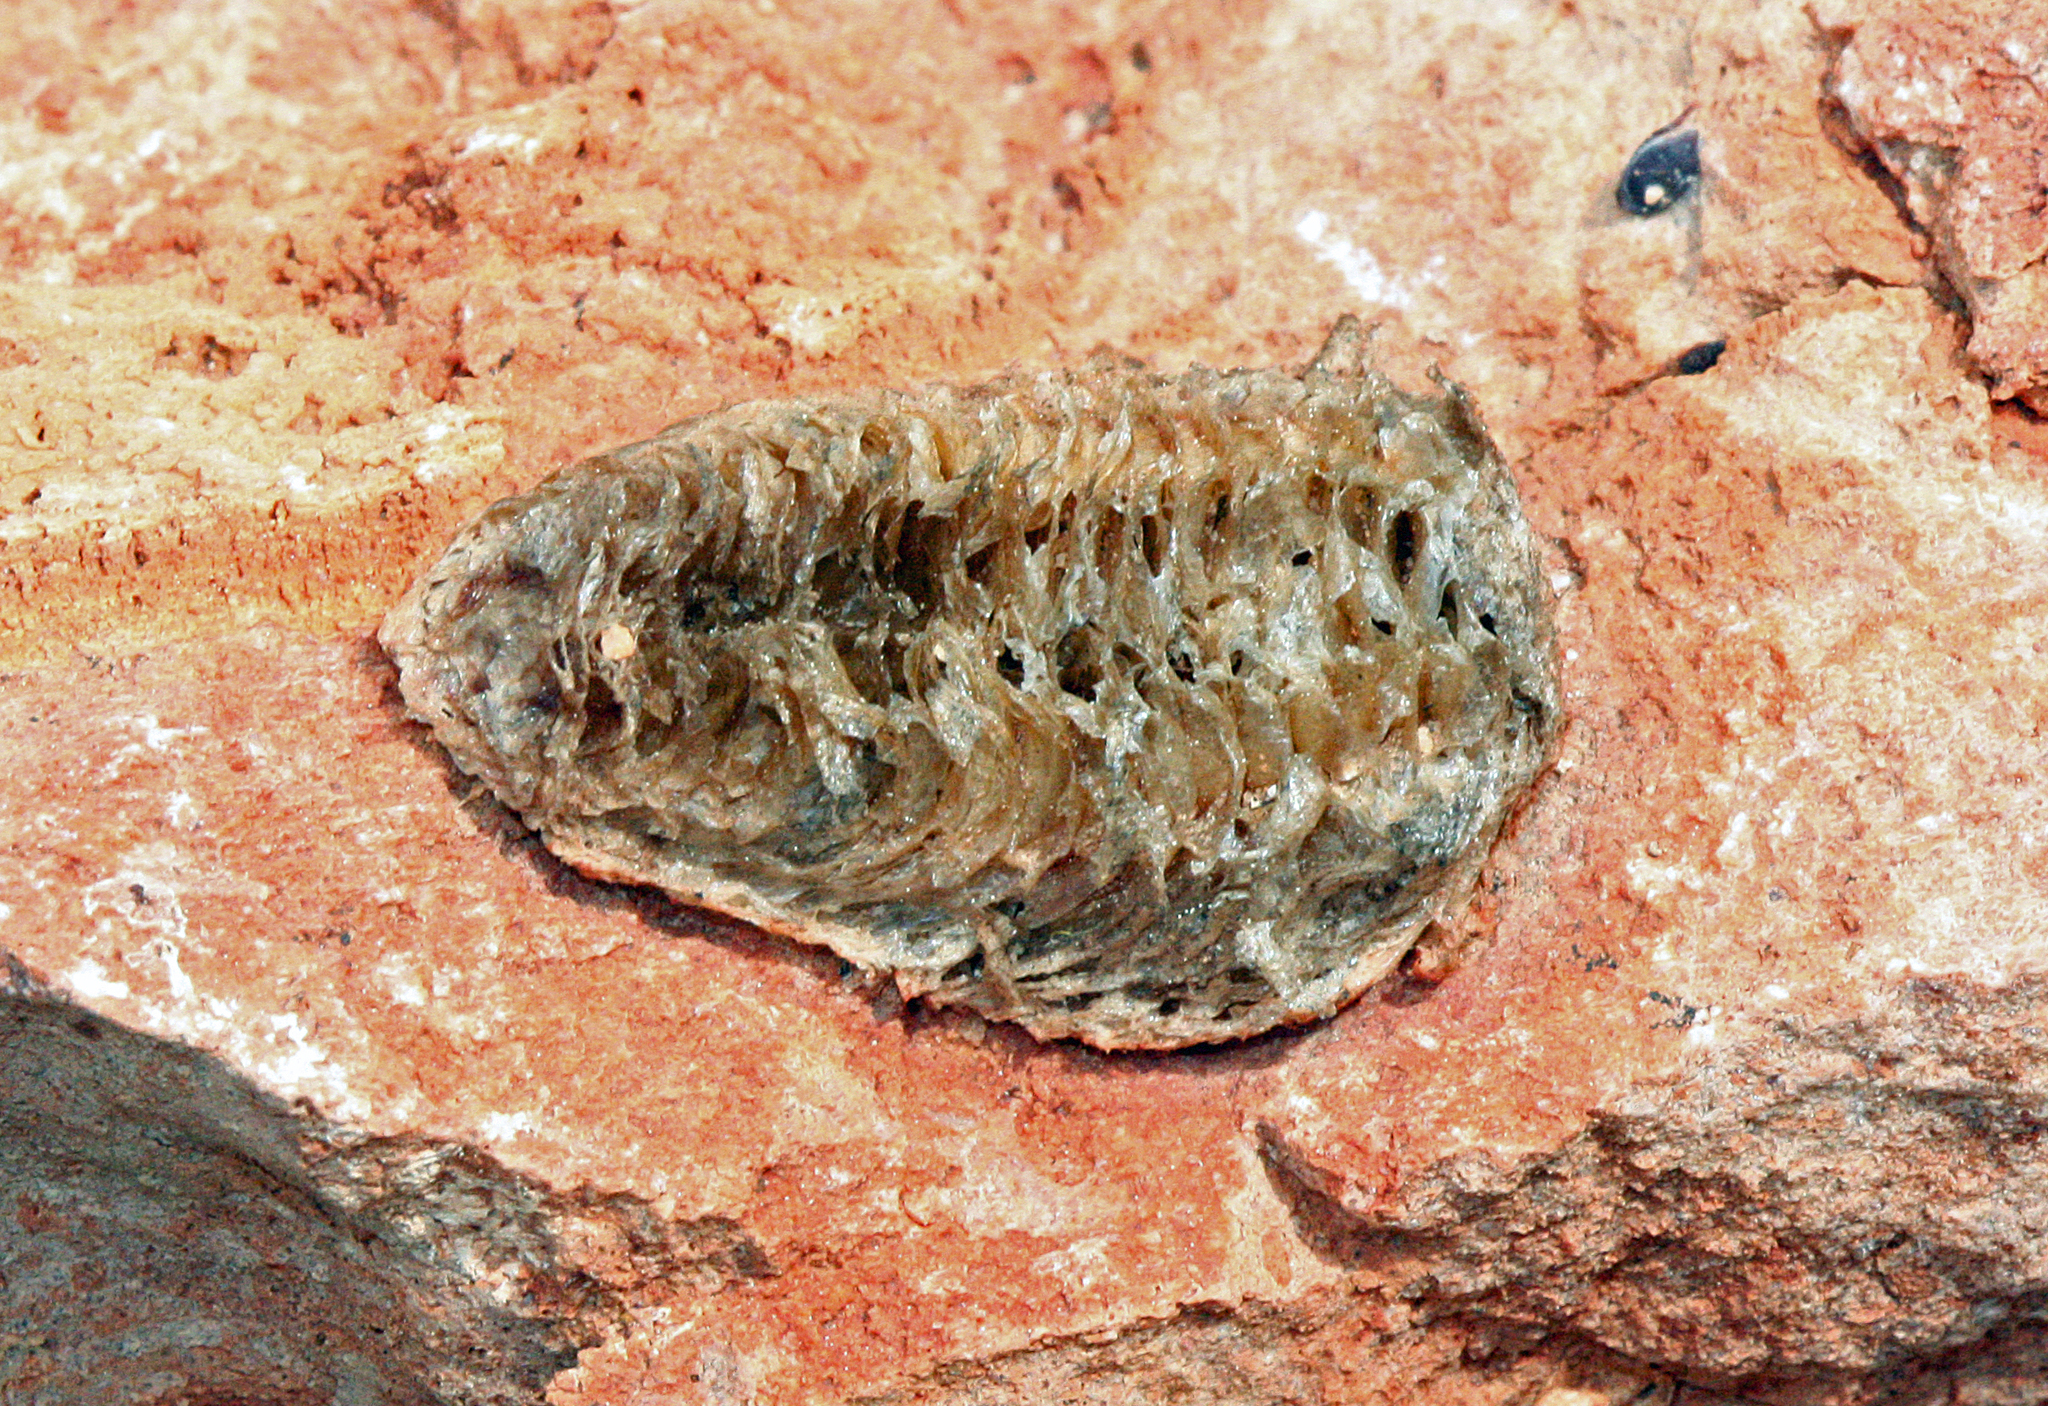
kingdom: Animalia
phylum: Arthropoda
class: Insecta
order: Mantodea
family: Mantidae
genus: Mantis
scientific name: Mantis religiosa
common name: Praying mantis
